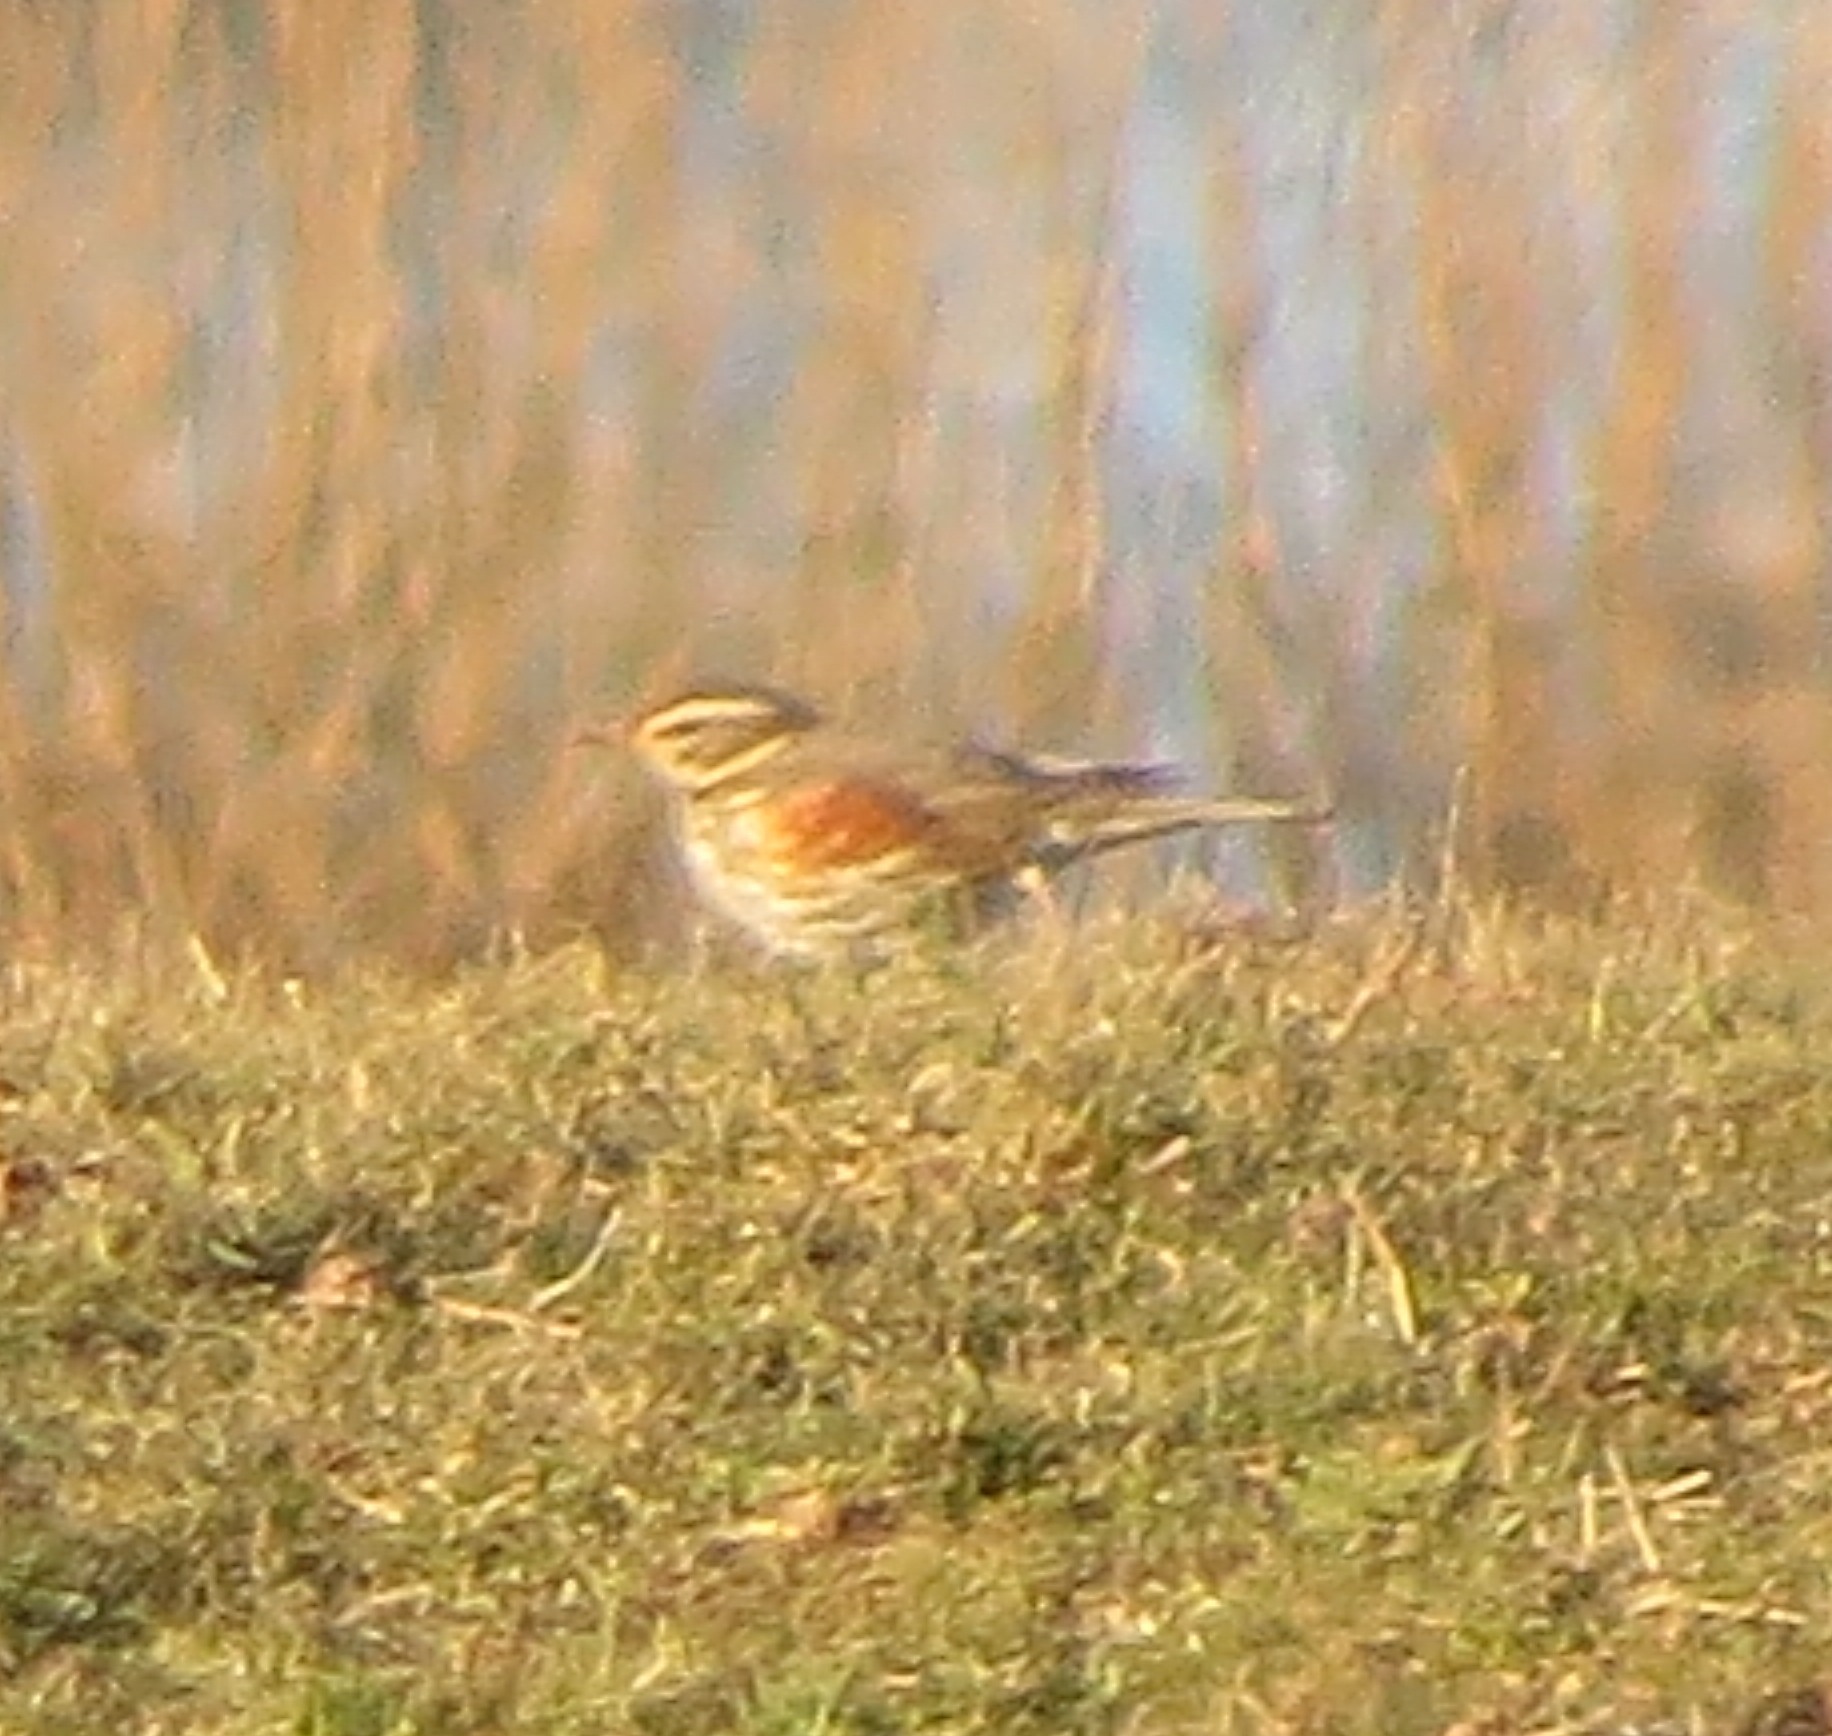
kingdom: Animalia
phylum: Chordata
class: Aves
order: Passeriformes
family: Turdidae
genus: Turdus
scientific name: Turdus iliacus
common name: Redwing
